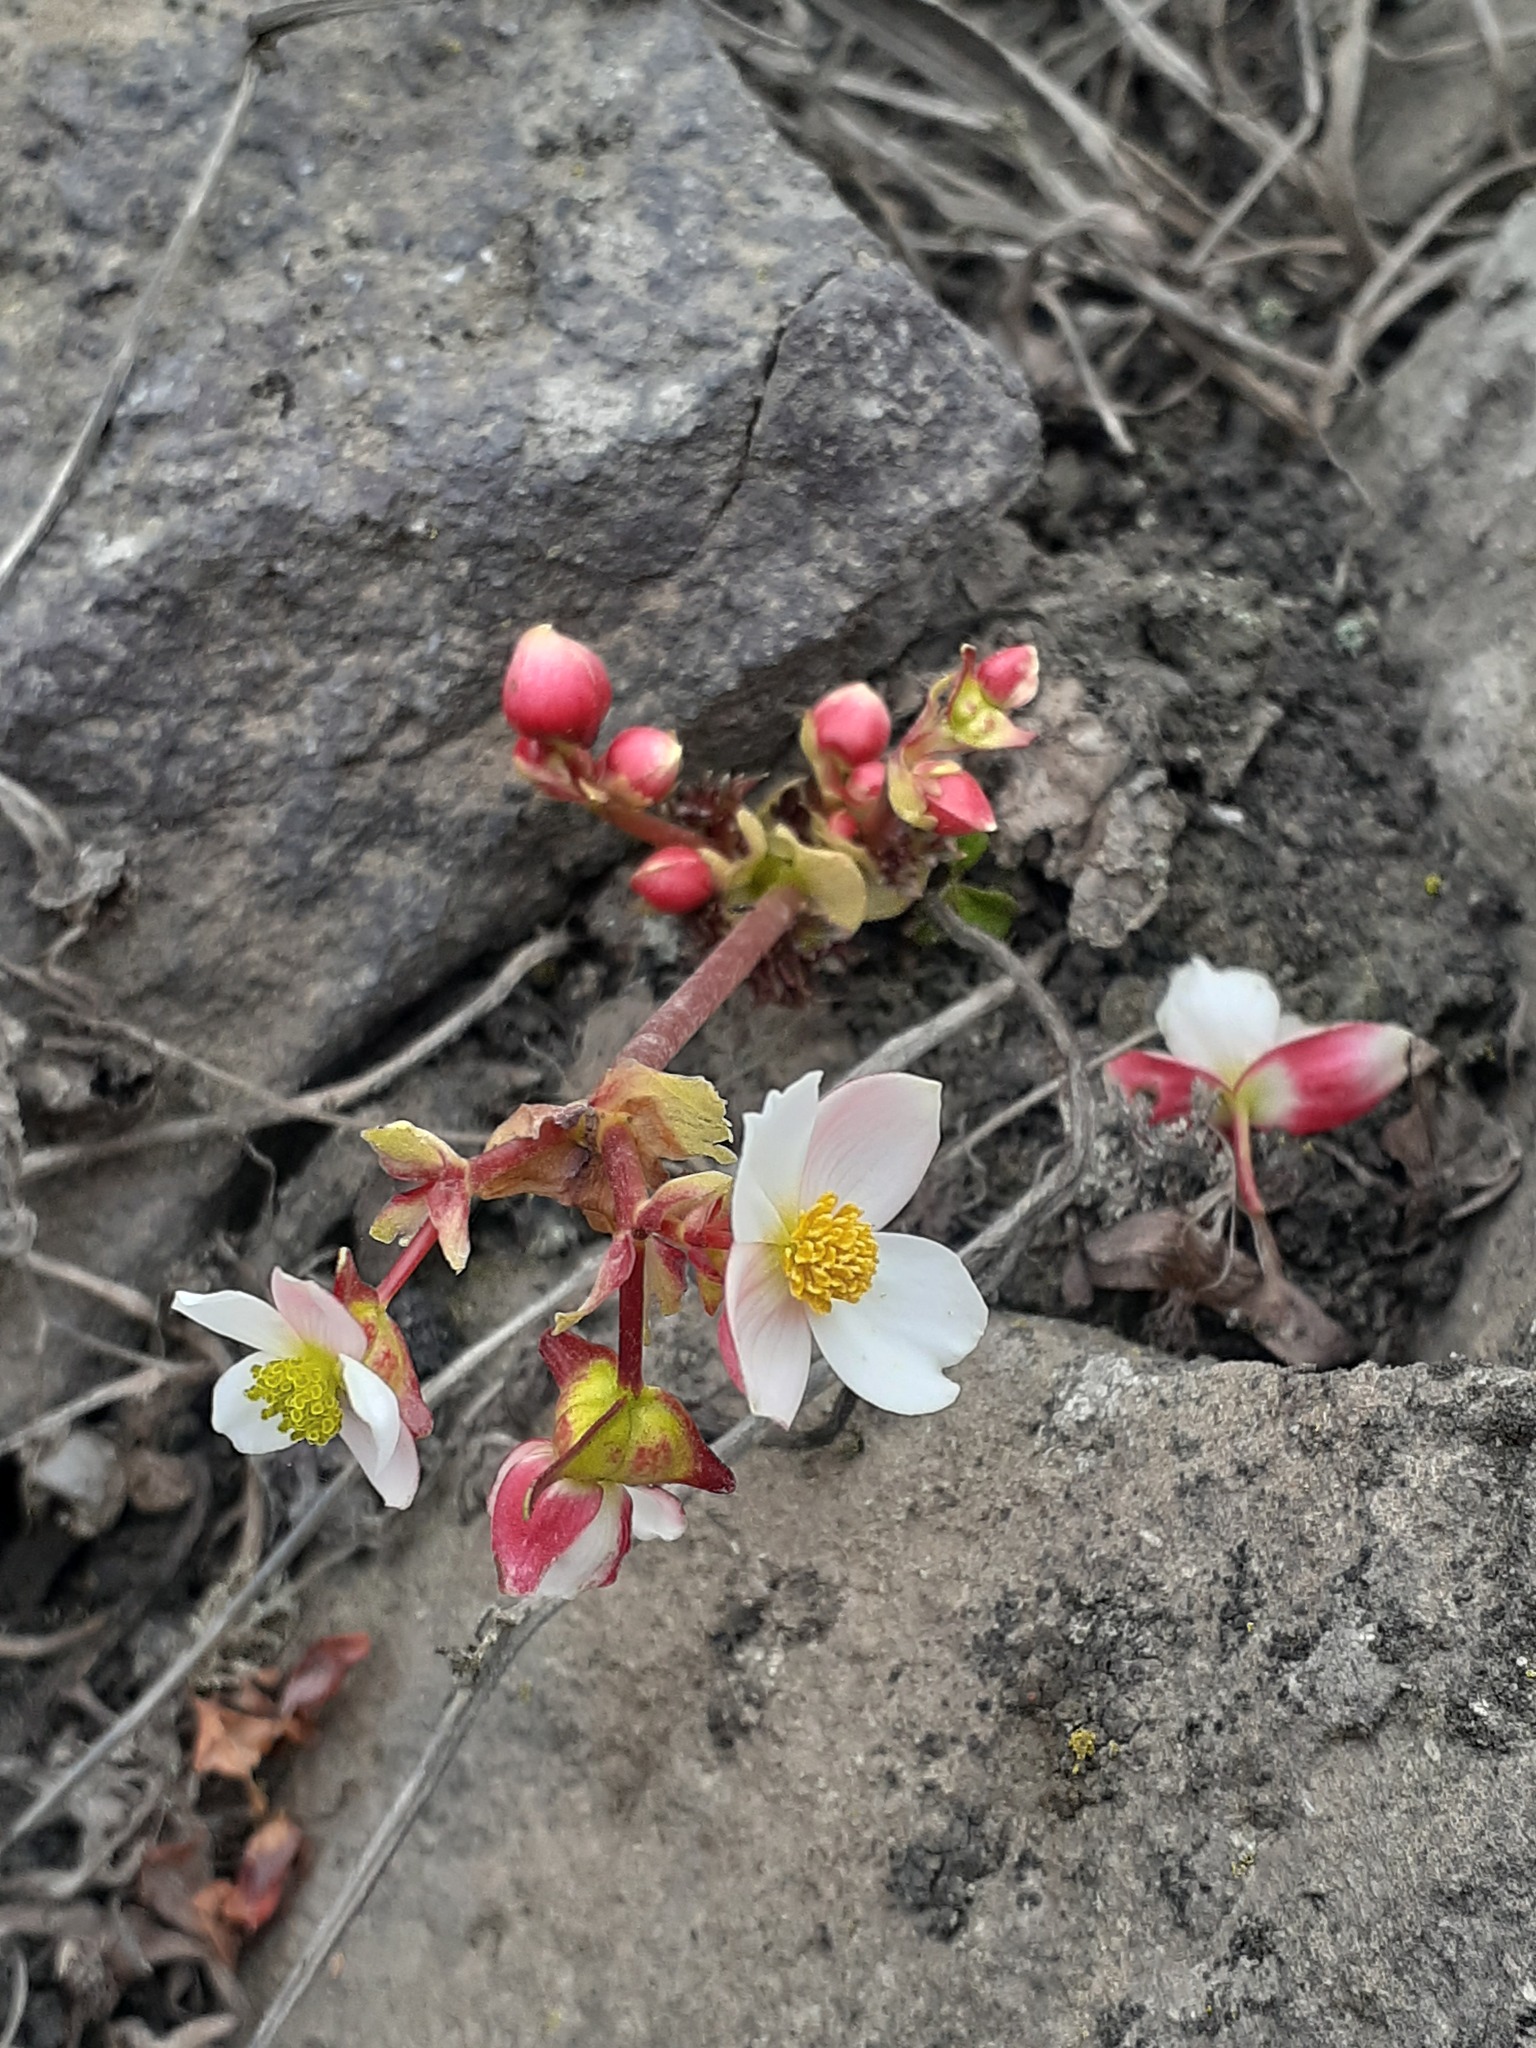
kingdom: Plantae
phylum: Tracheophyta
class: Magnoliopsida
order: Cucurbitales
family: Begoniaceae
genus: Begonia
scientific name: Begonia geraniifolia
